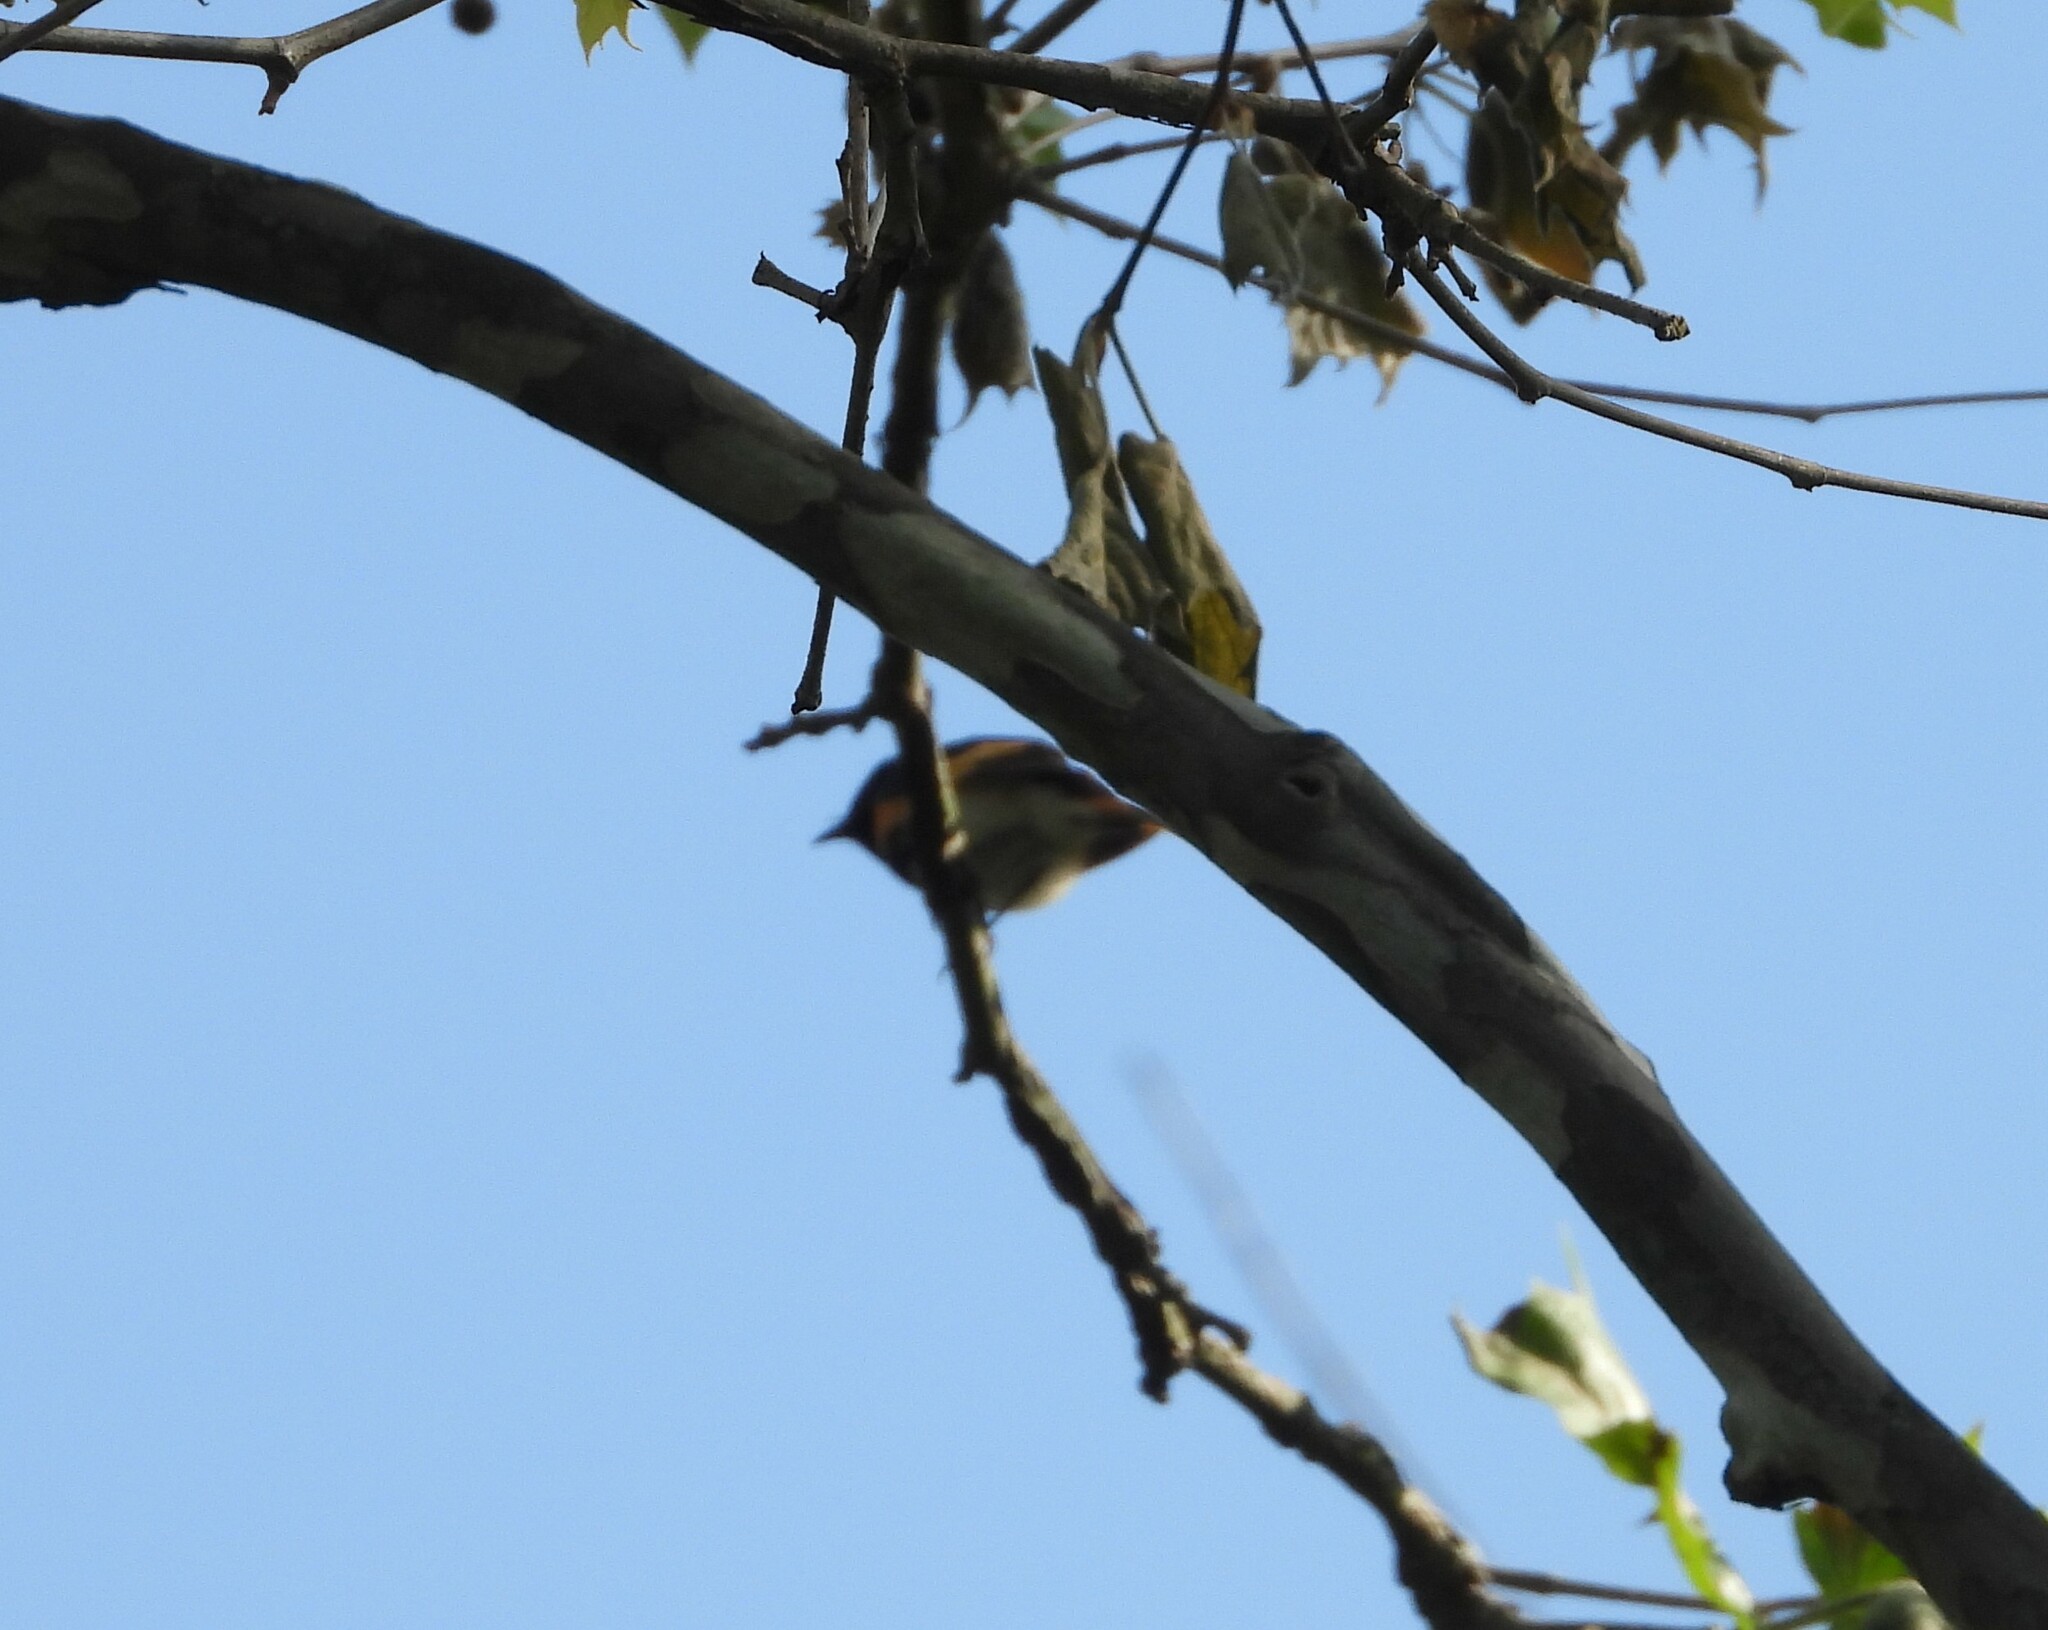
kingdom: Animalia
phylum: Chordata
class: Aves
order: Passeriformes
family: Parulidae
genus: Setophaga
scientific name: Setophaga ruticilla
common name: American redstart
